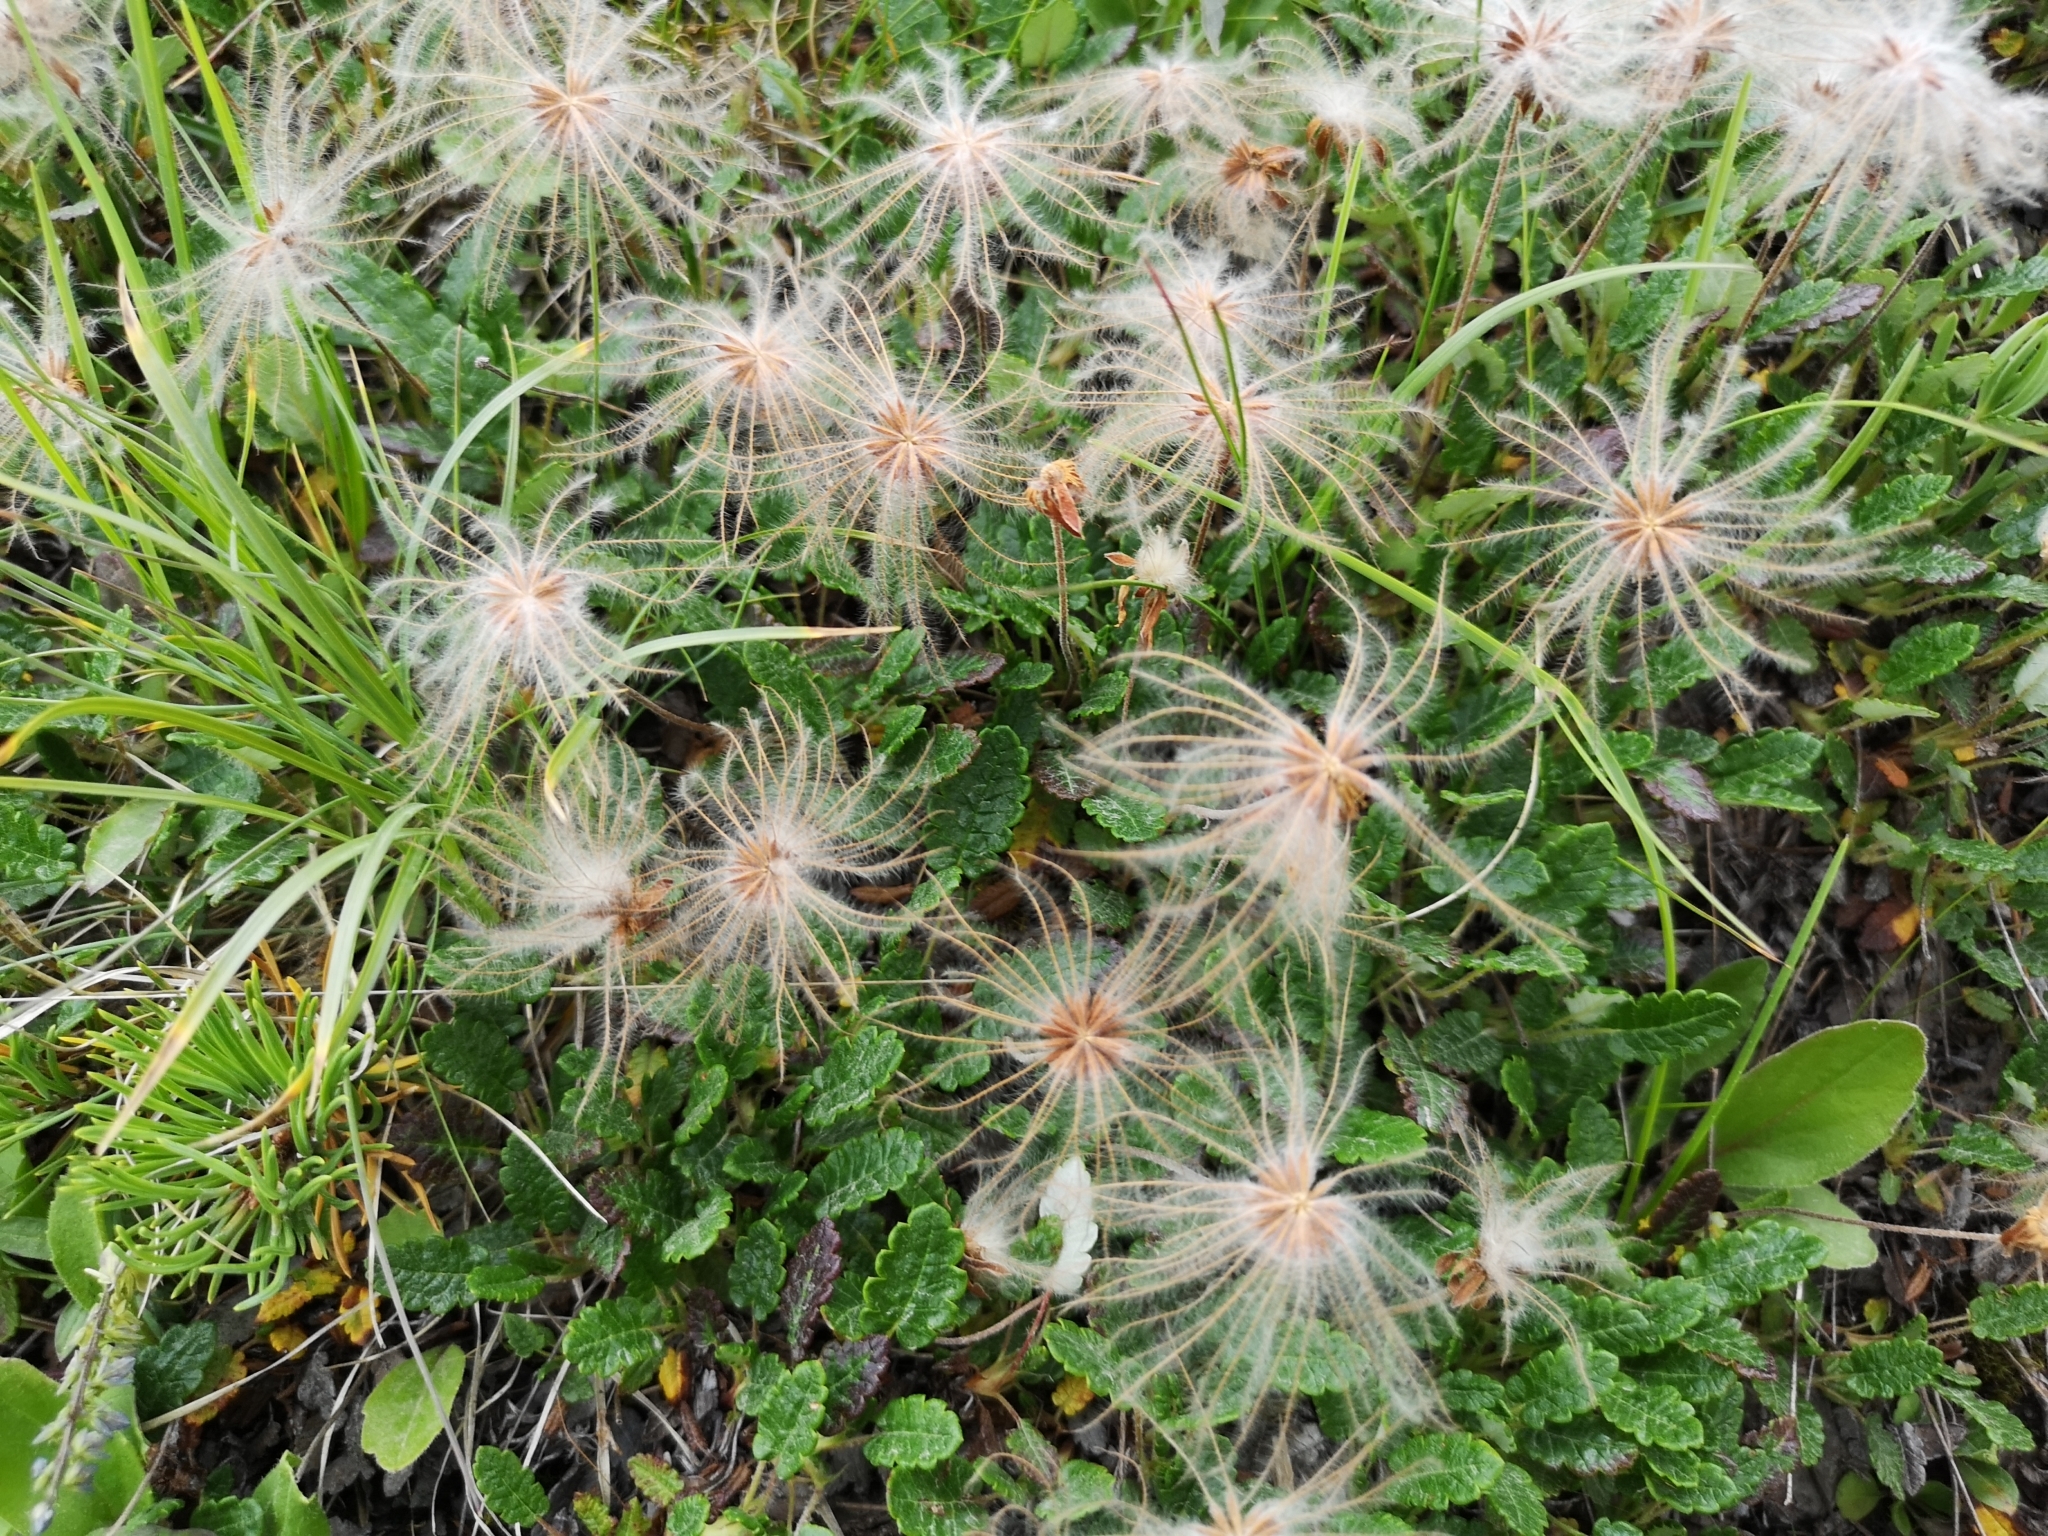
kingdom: Plantae
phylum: Tracheophyta
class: Magnoliopsida
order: Rosales
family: Rosaceae
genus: Dryas
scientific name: Dryas octopetala
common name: Eight-petal mountain-avens
